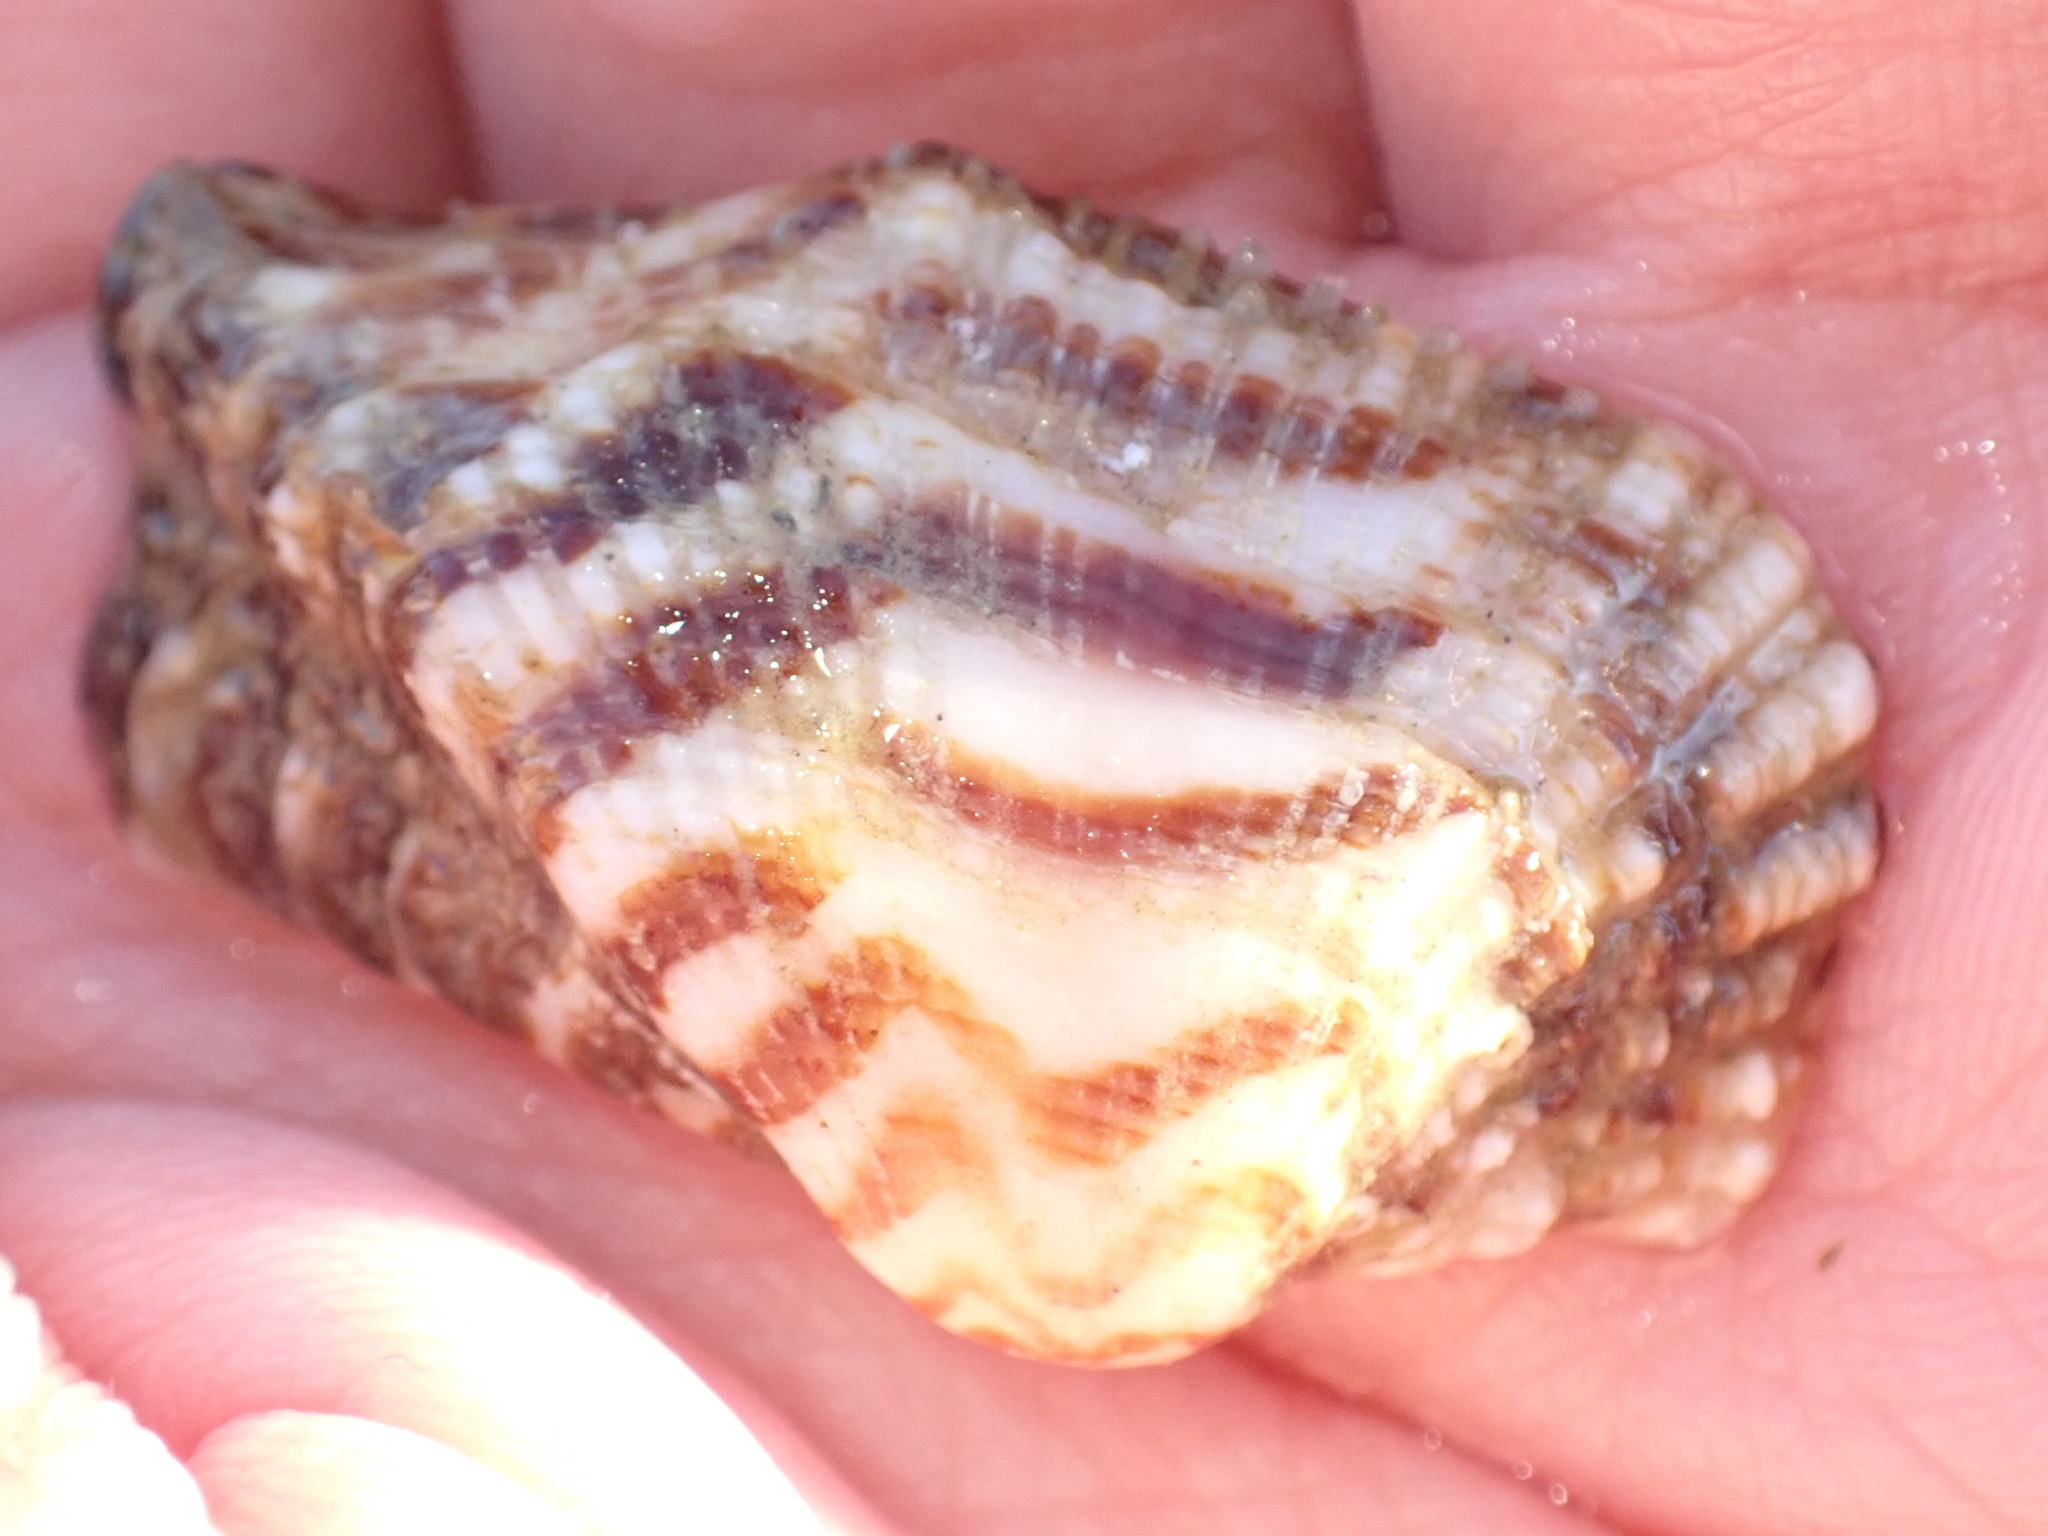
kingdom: Animalia
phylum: Mollusca
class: Bivalvia
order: Arcida
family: Arcidae
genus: Arca
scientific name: Arca noae
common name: Noah's arch
